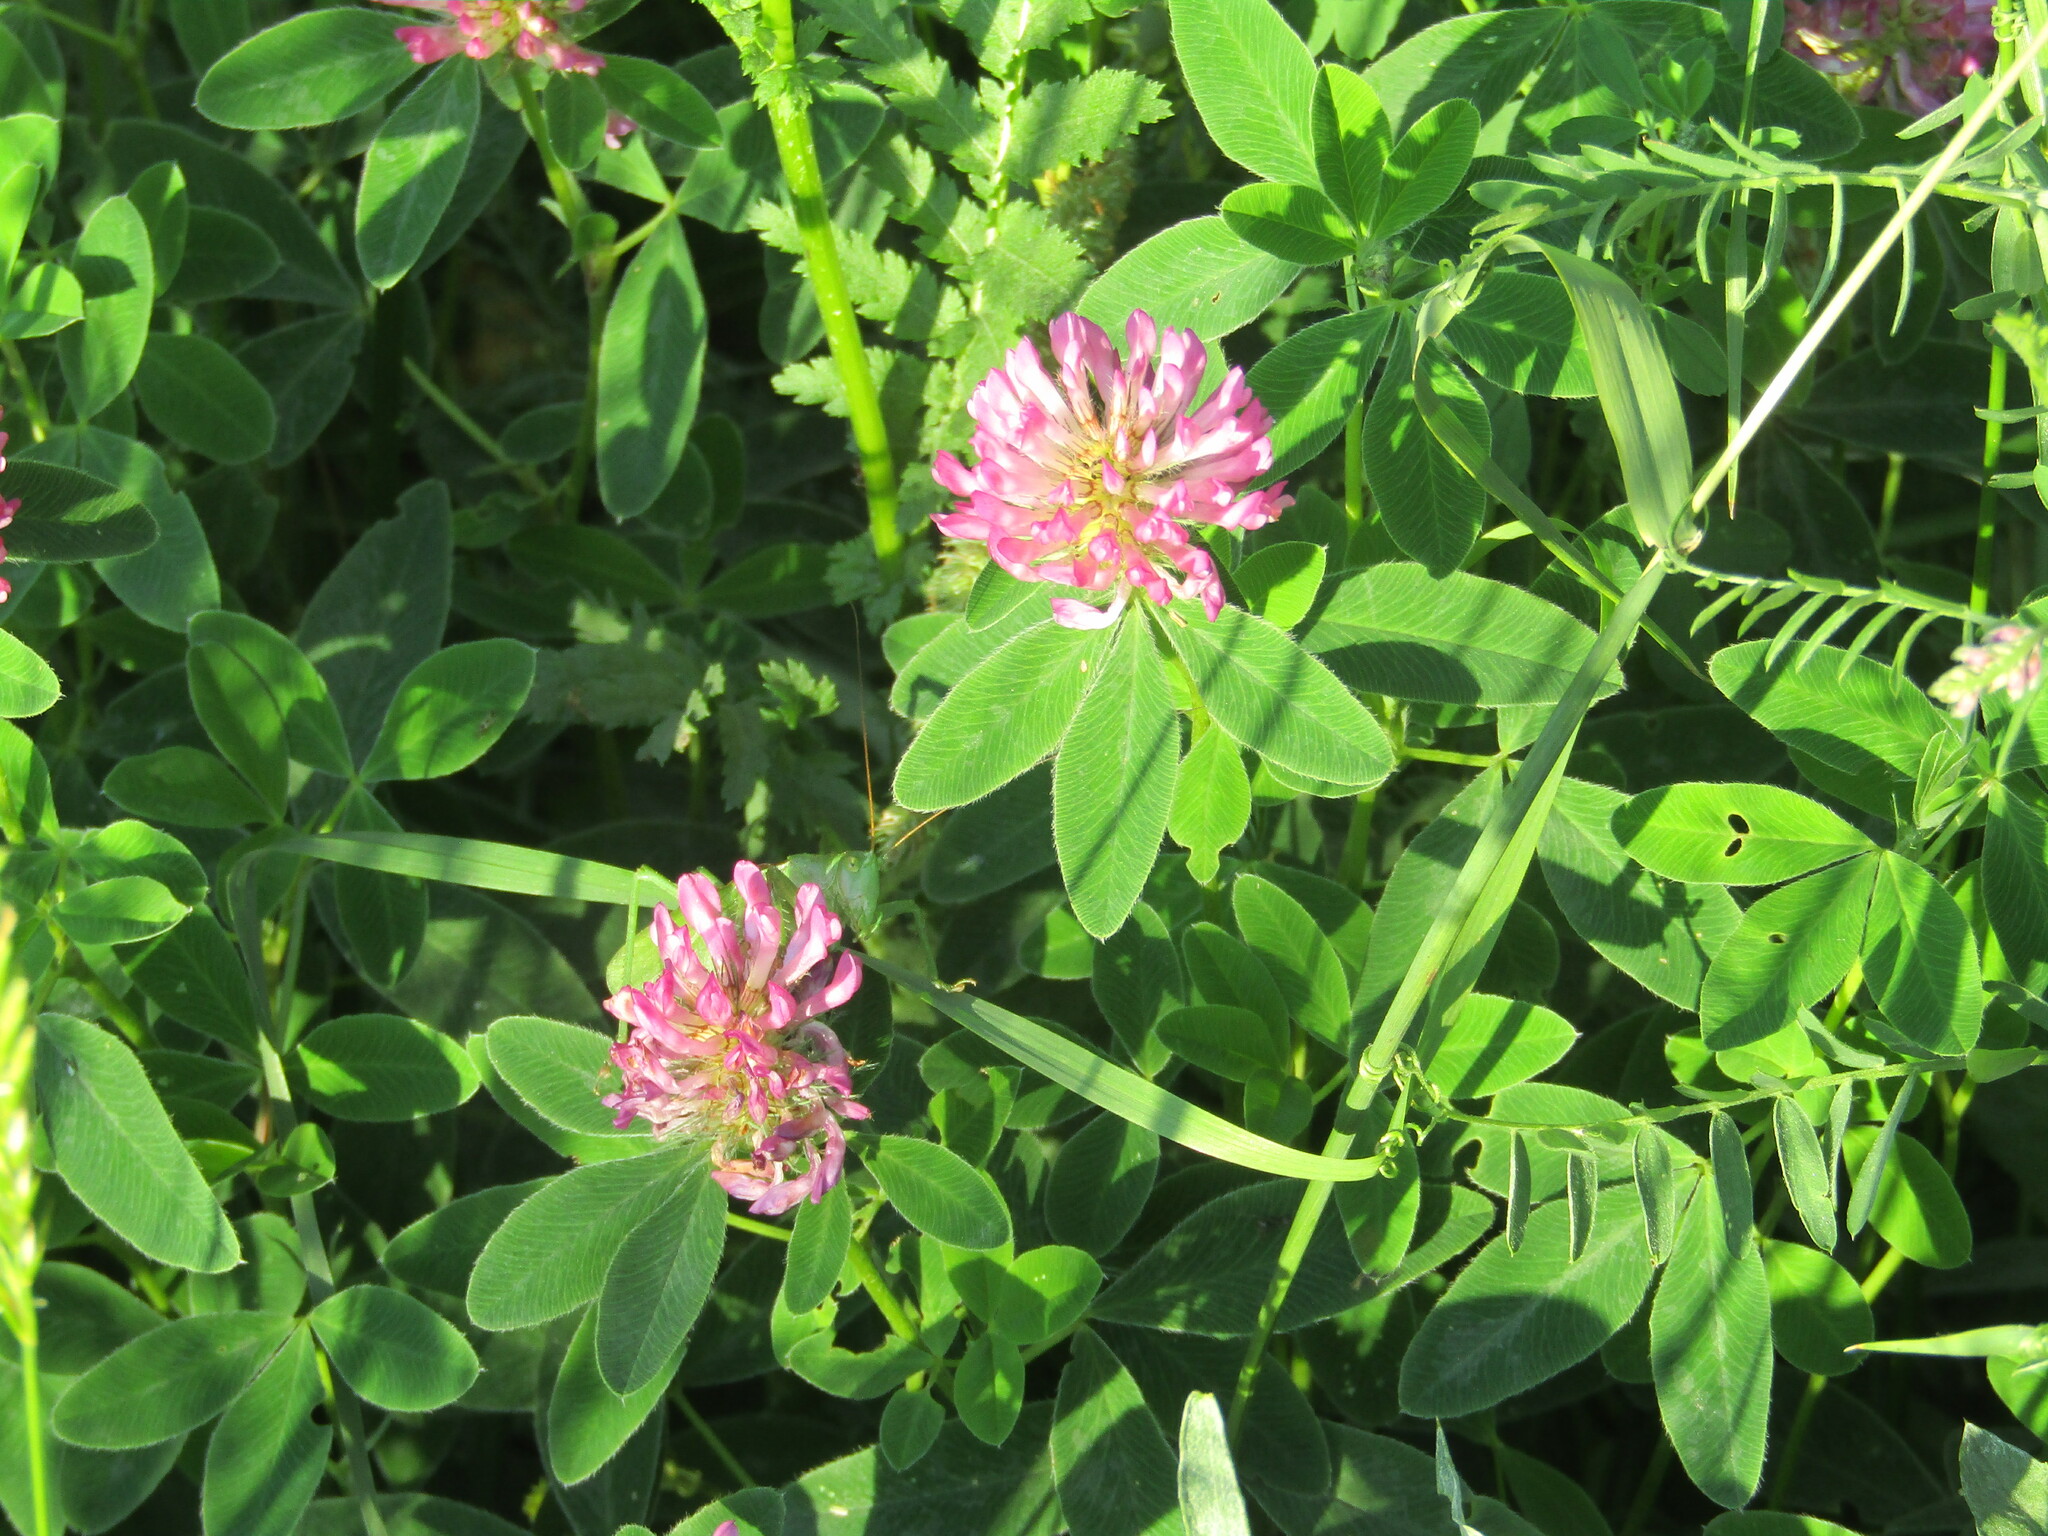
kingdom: Plantae
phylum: Tracheophyta
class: Magnoliopsida
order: Fabales
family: Fabaceae
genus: Trifolium
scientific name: Trifolium medium
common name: Zigzag clover
